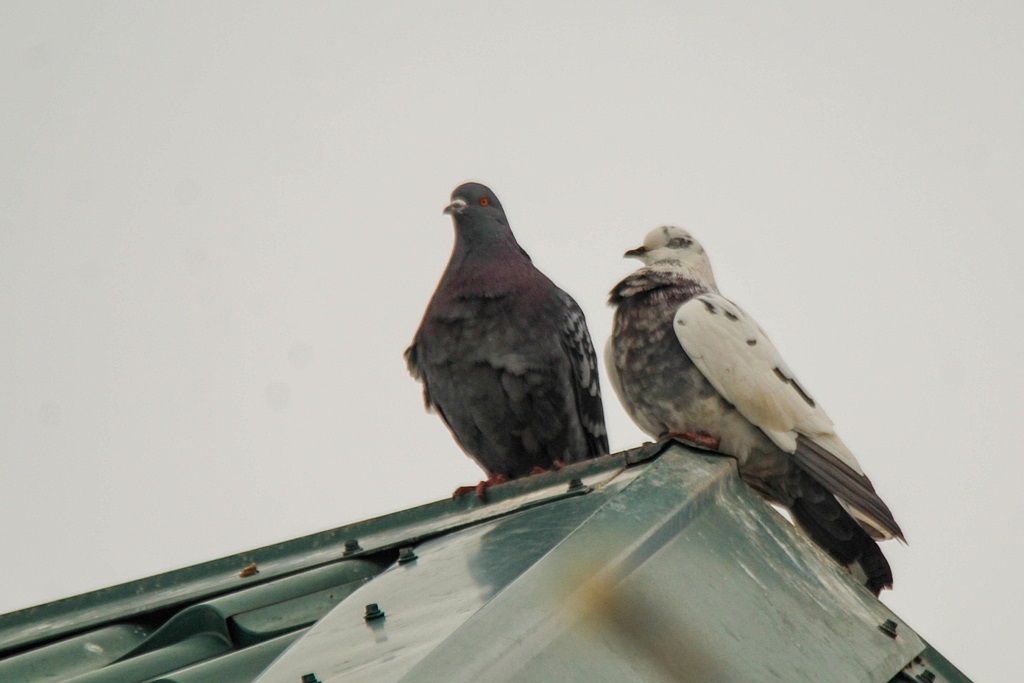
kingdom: Animalia
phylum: Chordata
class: Aves
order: Columbiformes
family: Columbidae
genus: Columba
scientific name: Columba livia
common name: Rock pigeon
